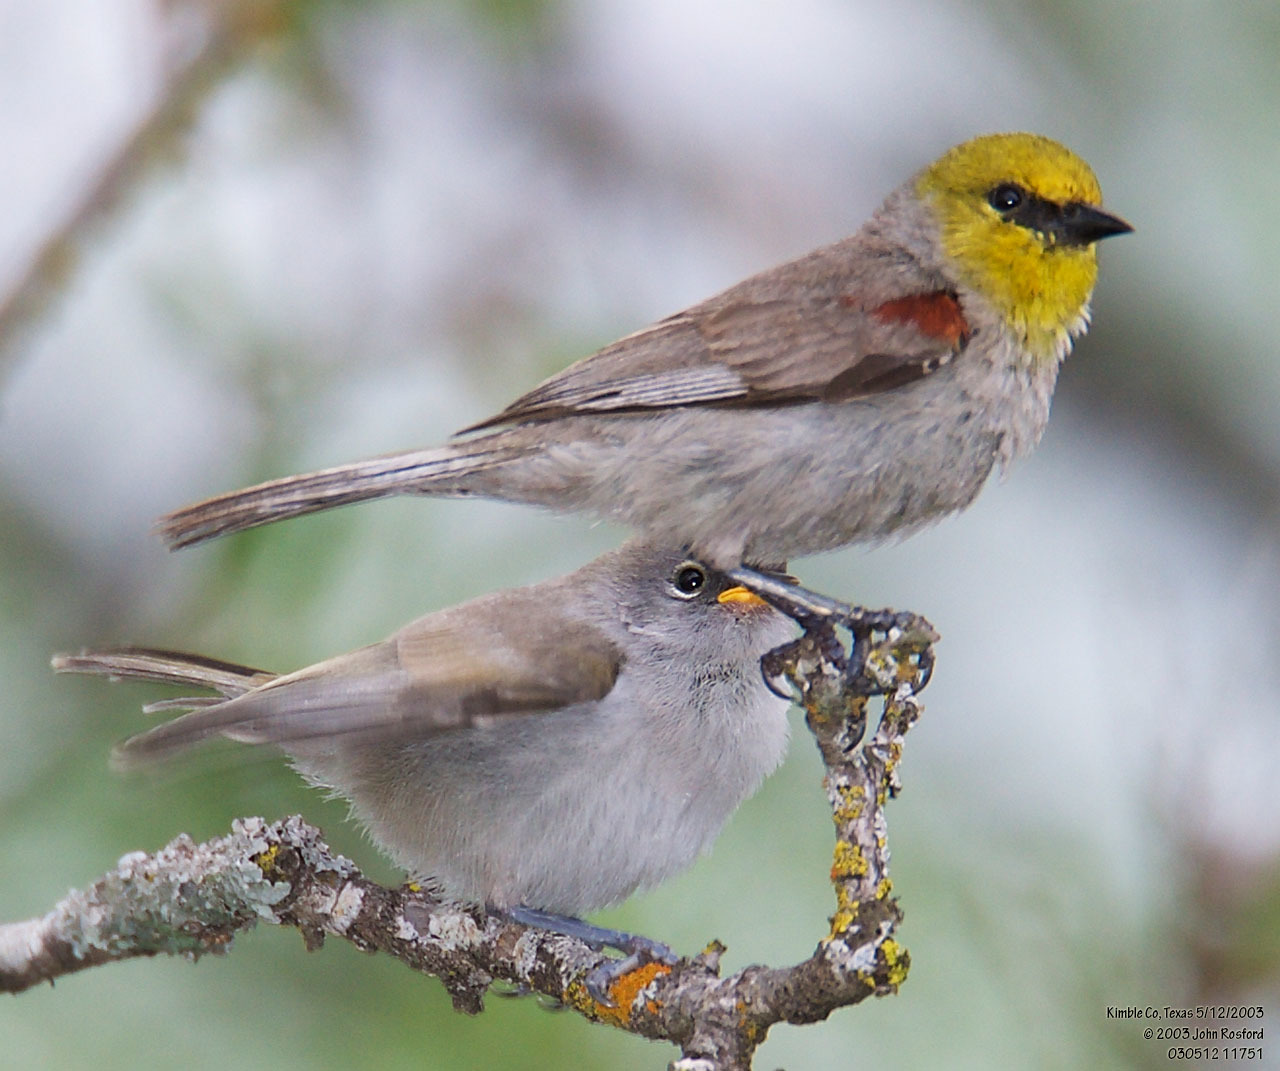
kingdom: Animalia
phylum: Chordata
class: Aves
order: Passeriformes
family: Remizidae
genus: Auriparus
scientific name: Auriparus flaviceps
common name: Verdin
